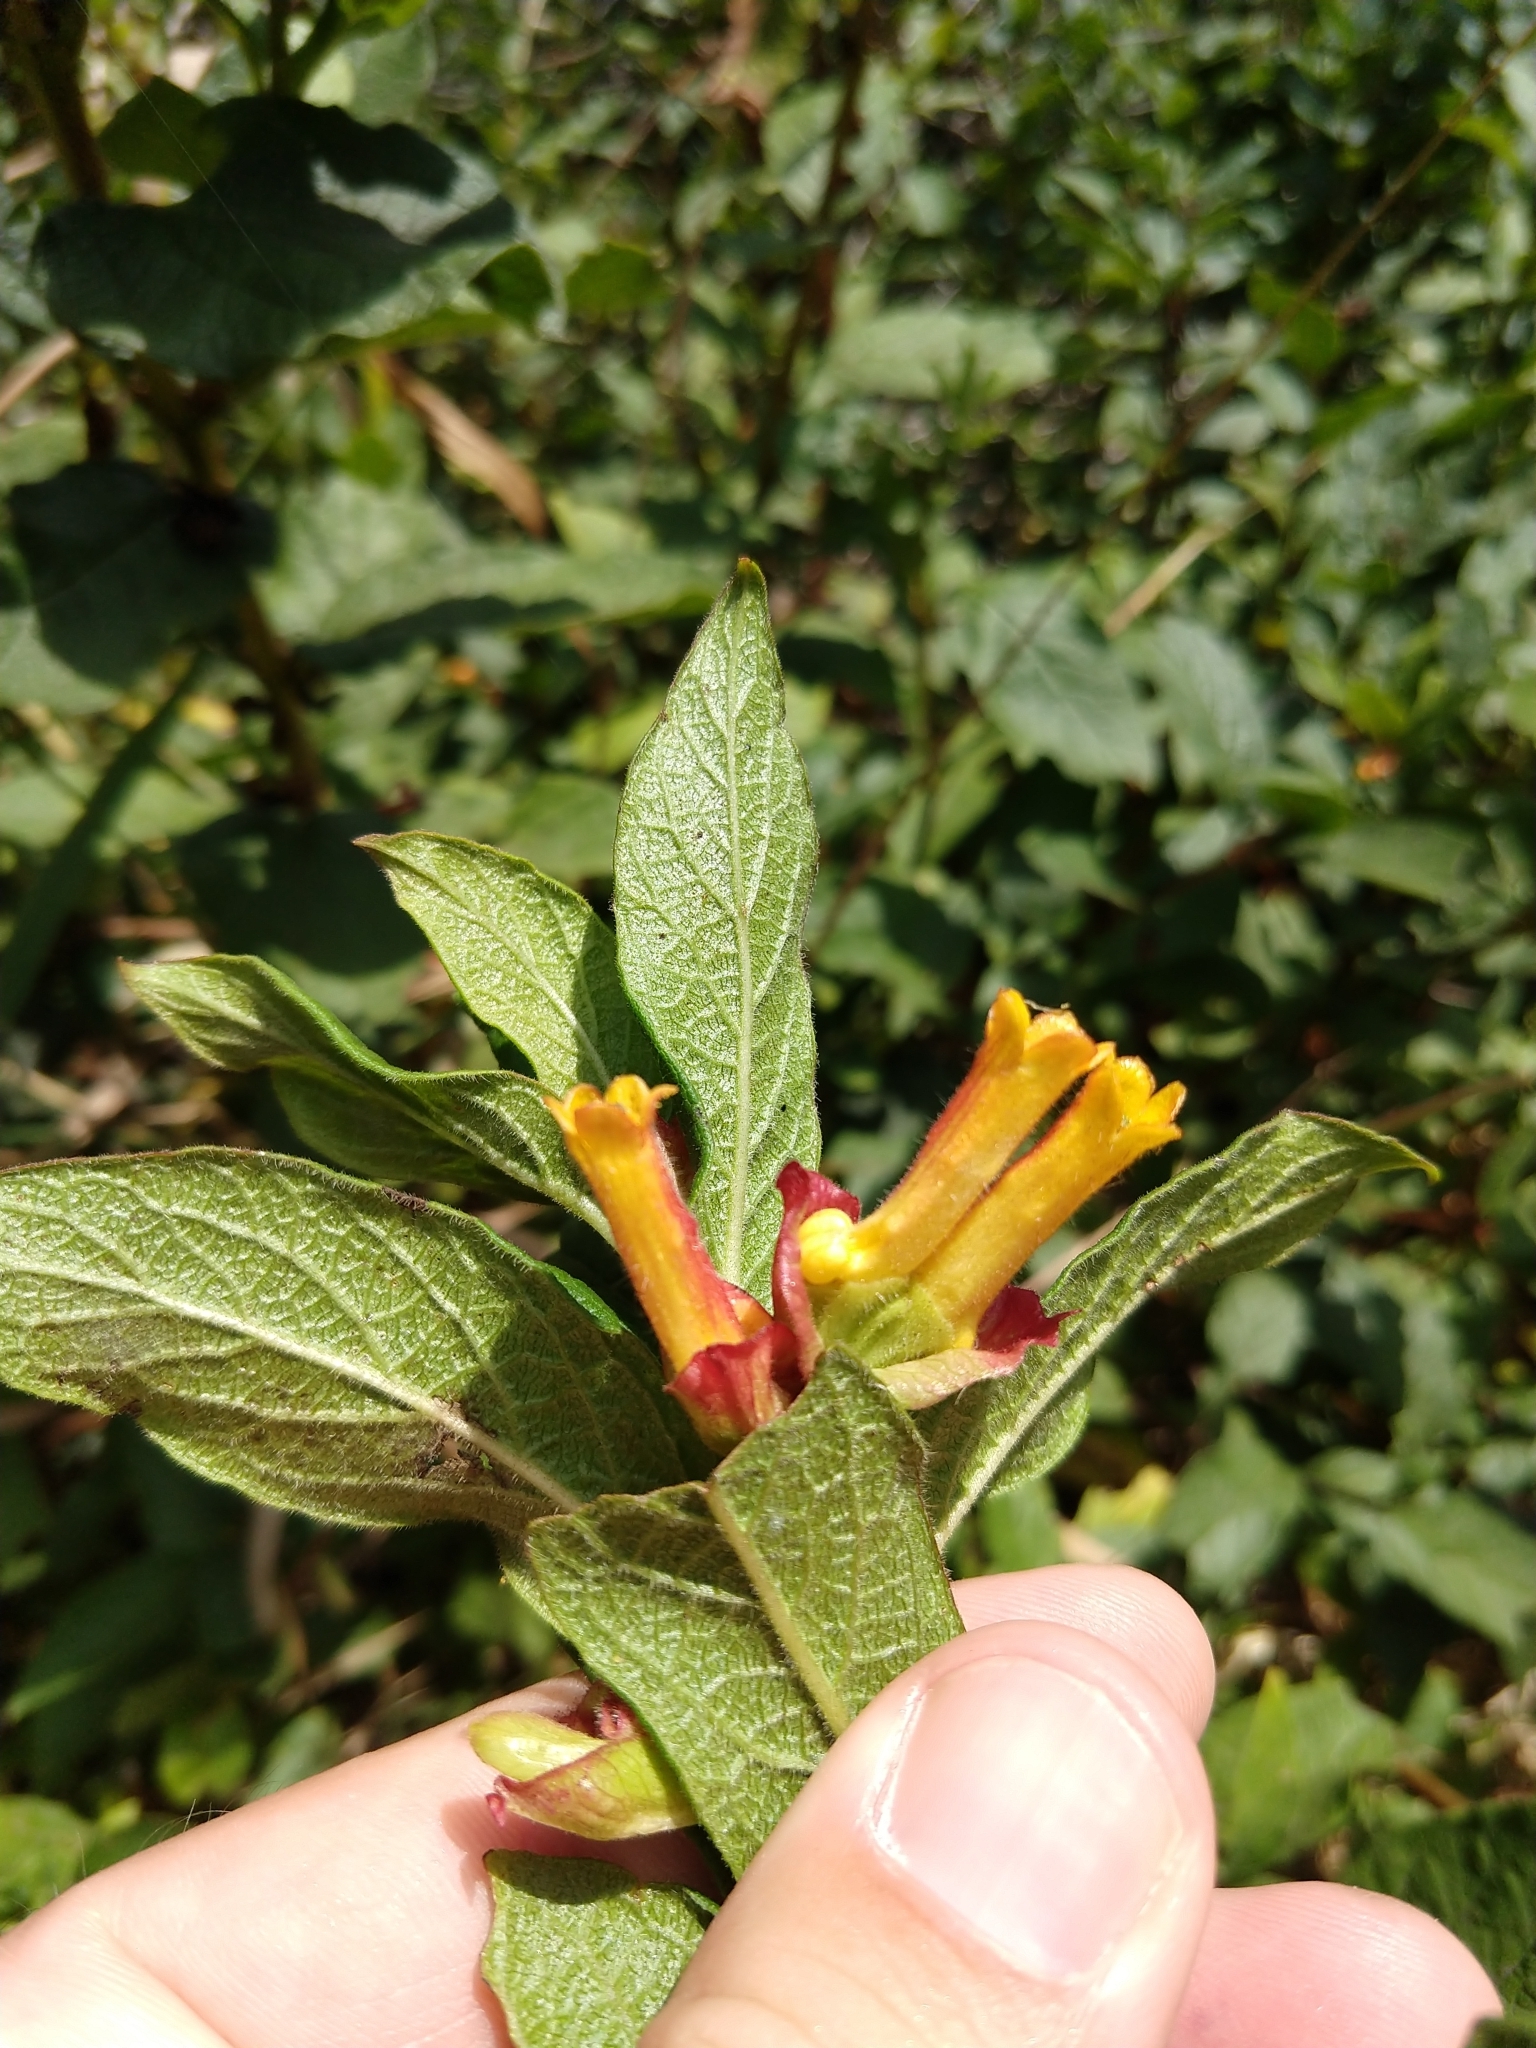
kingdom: Plantae
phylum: Tracheophyta
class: Magnoliopsida
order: Dipsacales
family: Caprifoliaceae
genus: Lonicera
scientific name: Lonicera involucrata
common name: Californian honeysuckle
